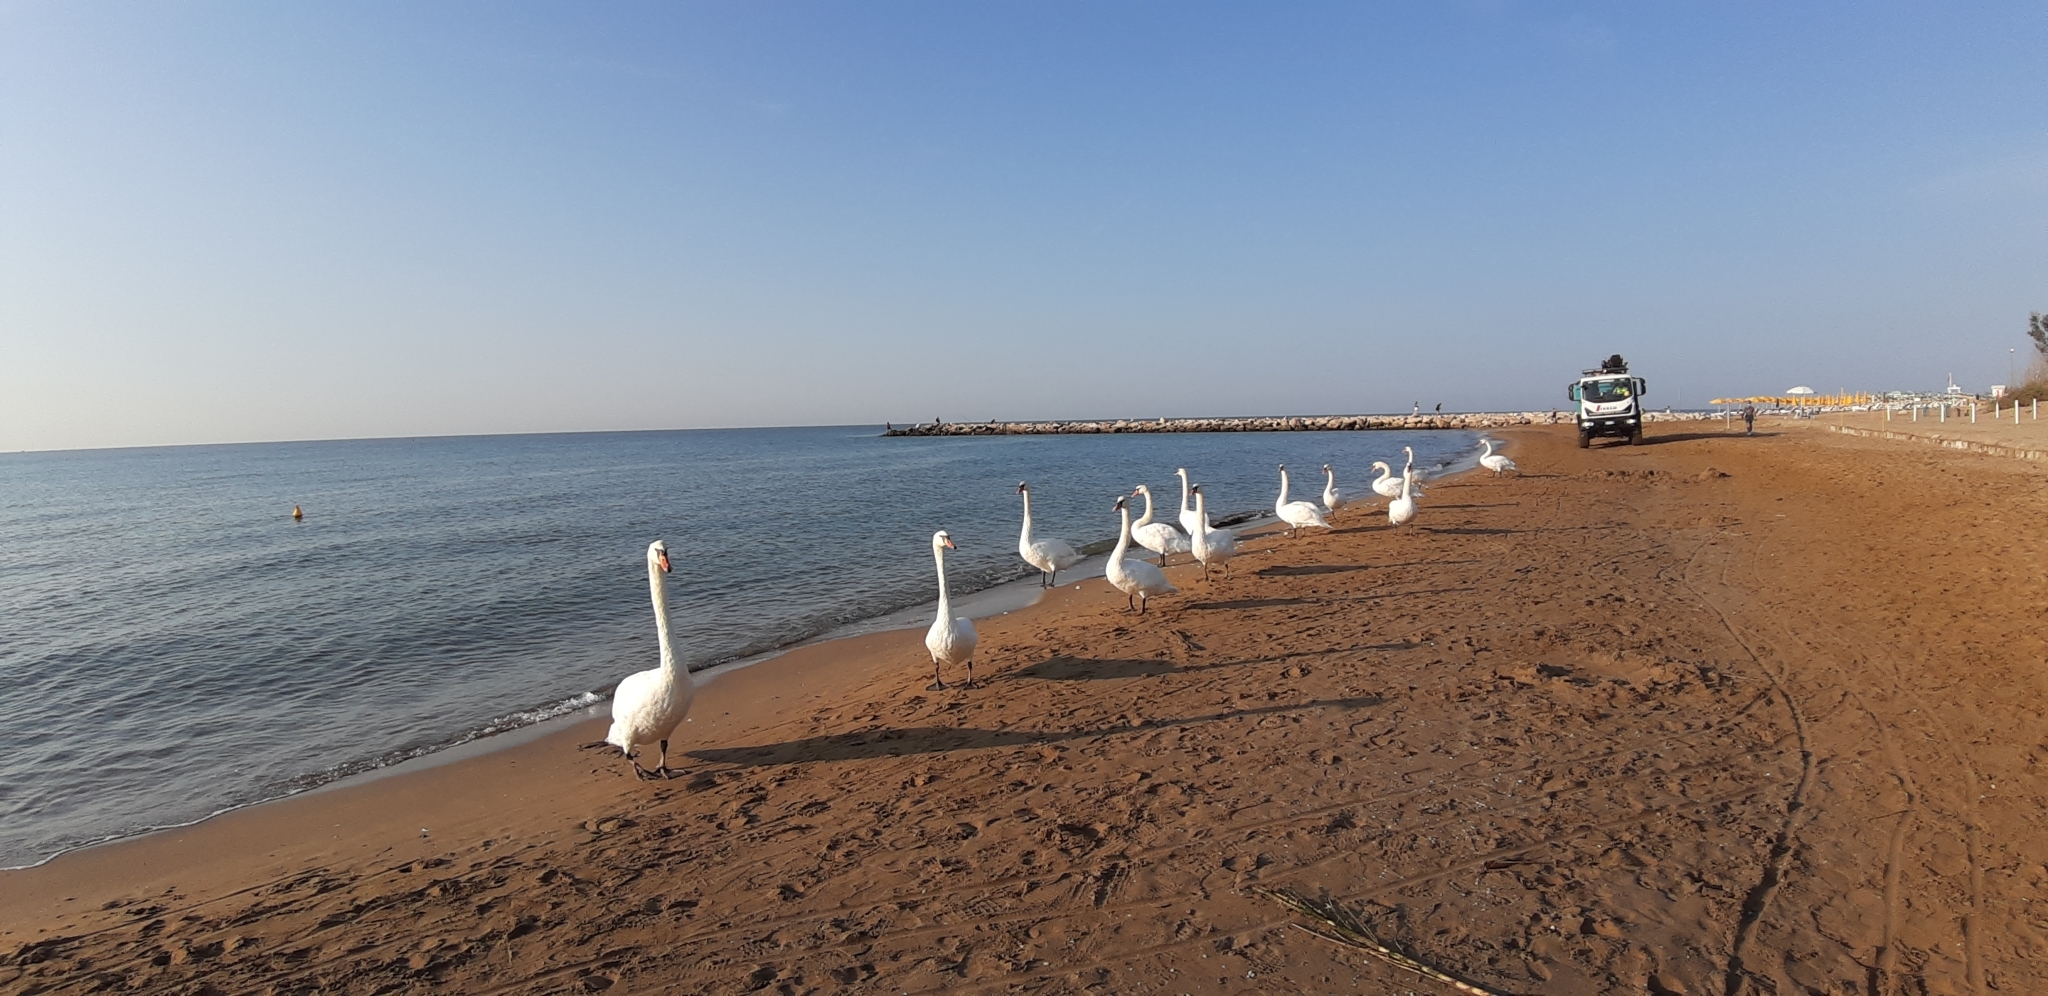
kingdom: Animalia
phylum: Chordata
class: Aves
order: Anseriformes
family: Anatidae
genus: Cygnus
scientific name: Cygnus olor
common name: Mute swan
